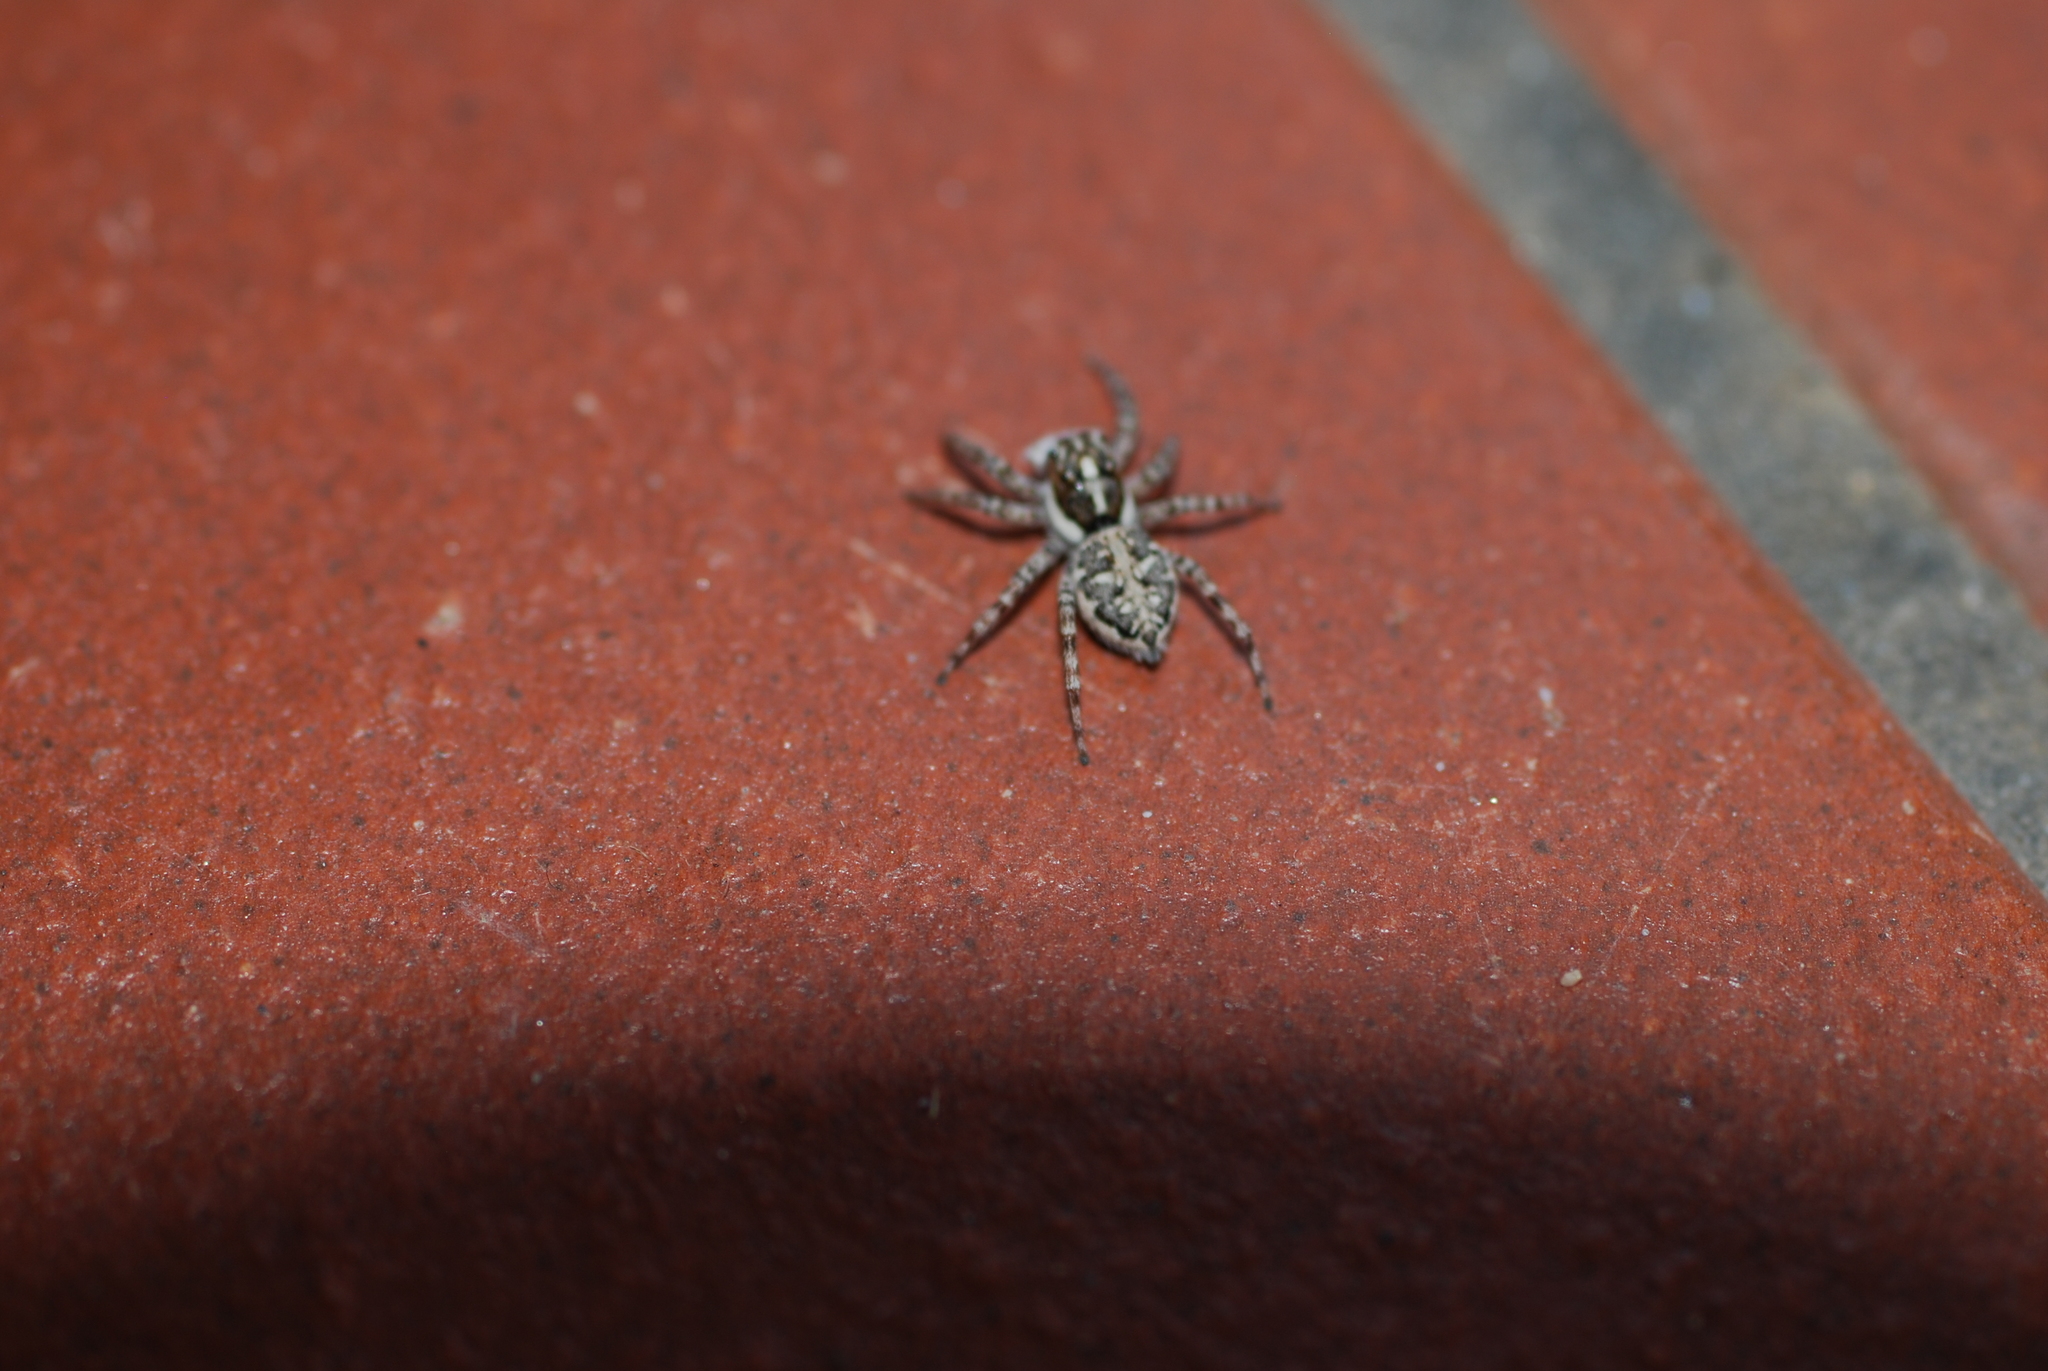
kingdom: Animalia
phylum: Arthropoda
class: Arachnida
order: Araneae
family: Salticidae
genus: Menemerus
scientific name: Menemerus semilimbatus
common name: Jumping spider
